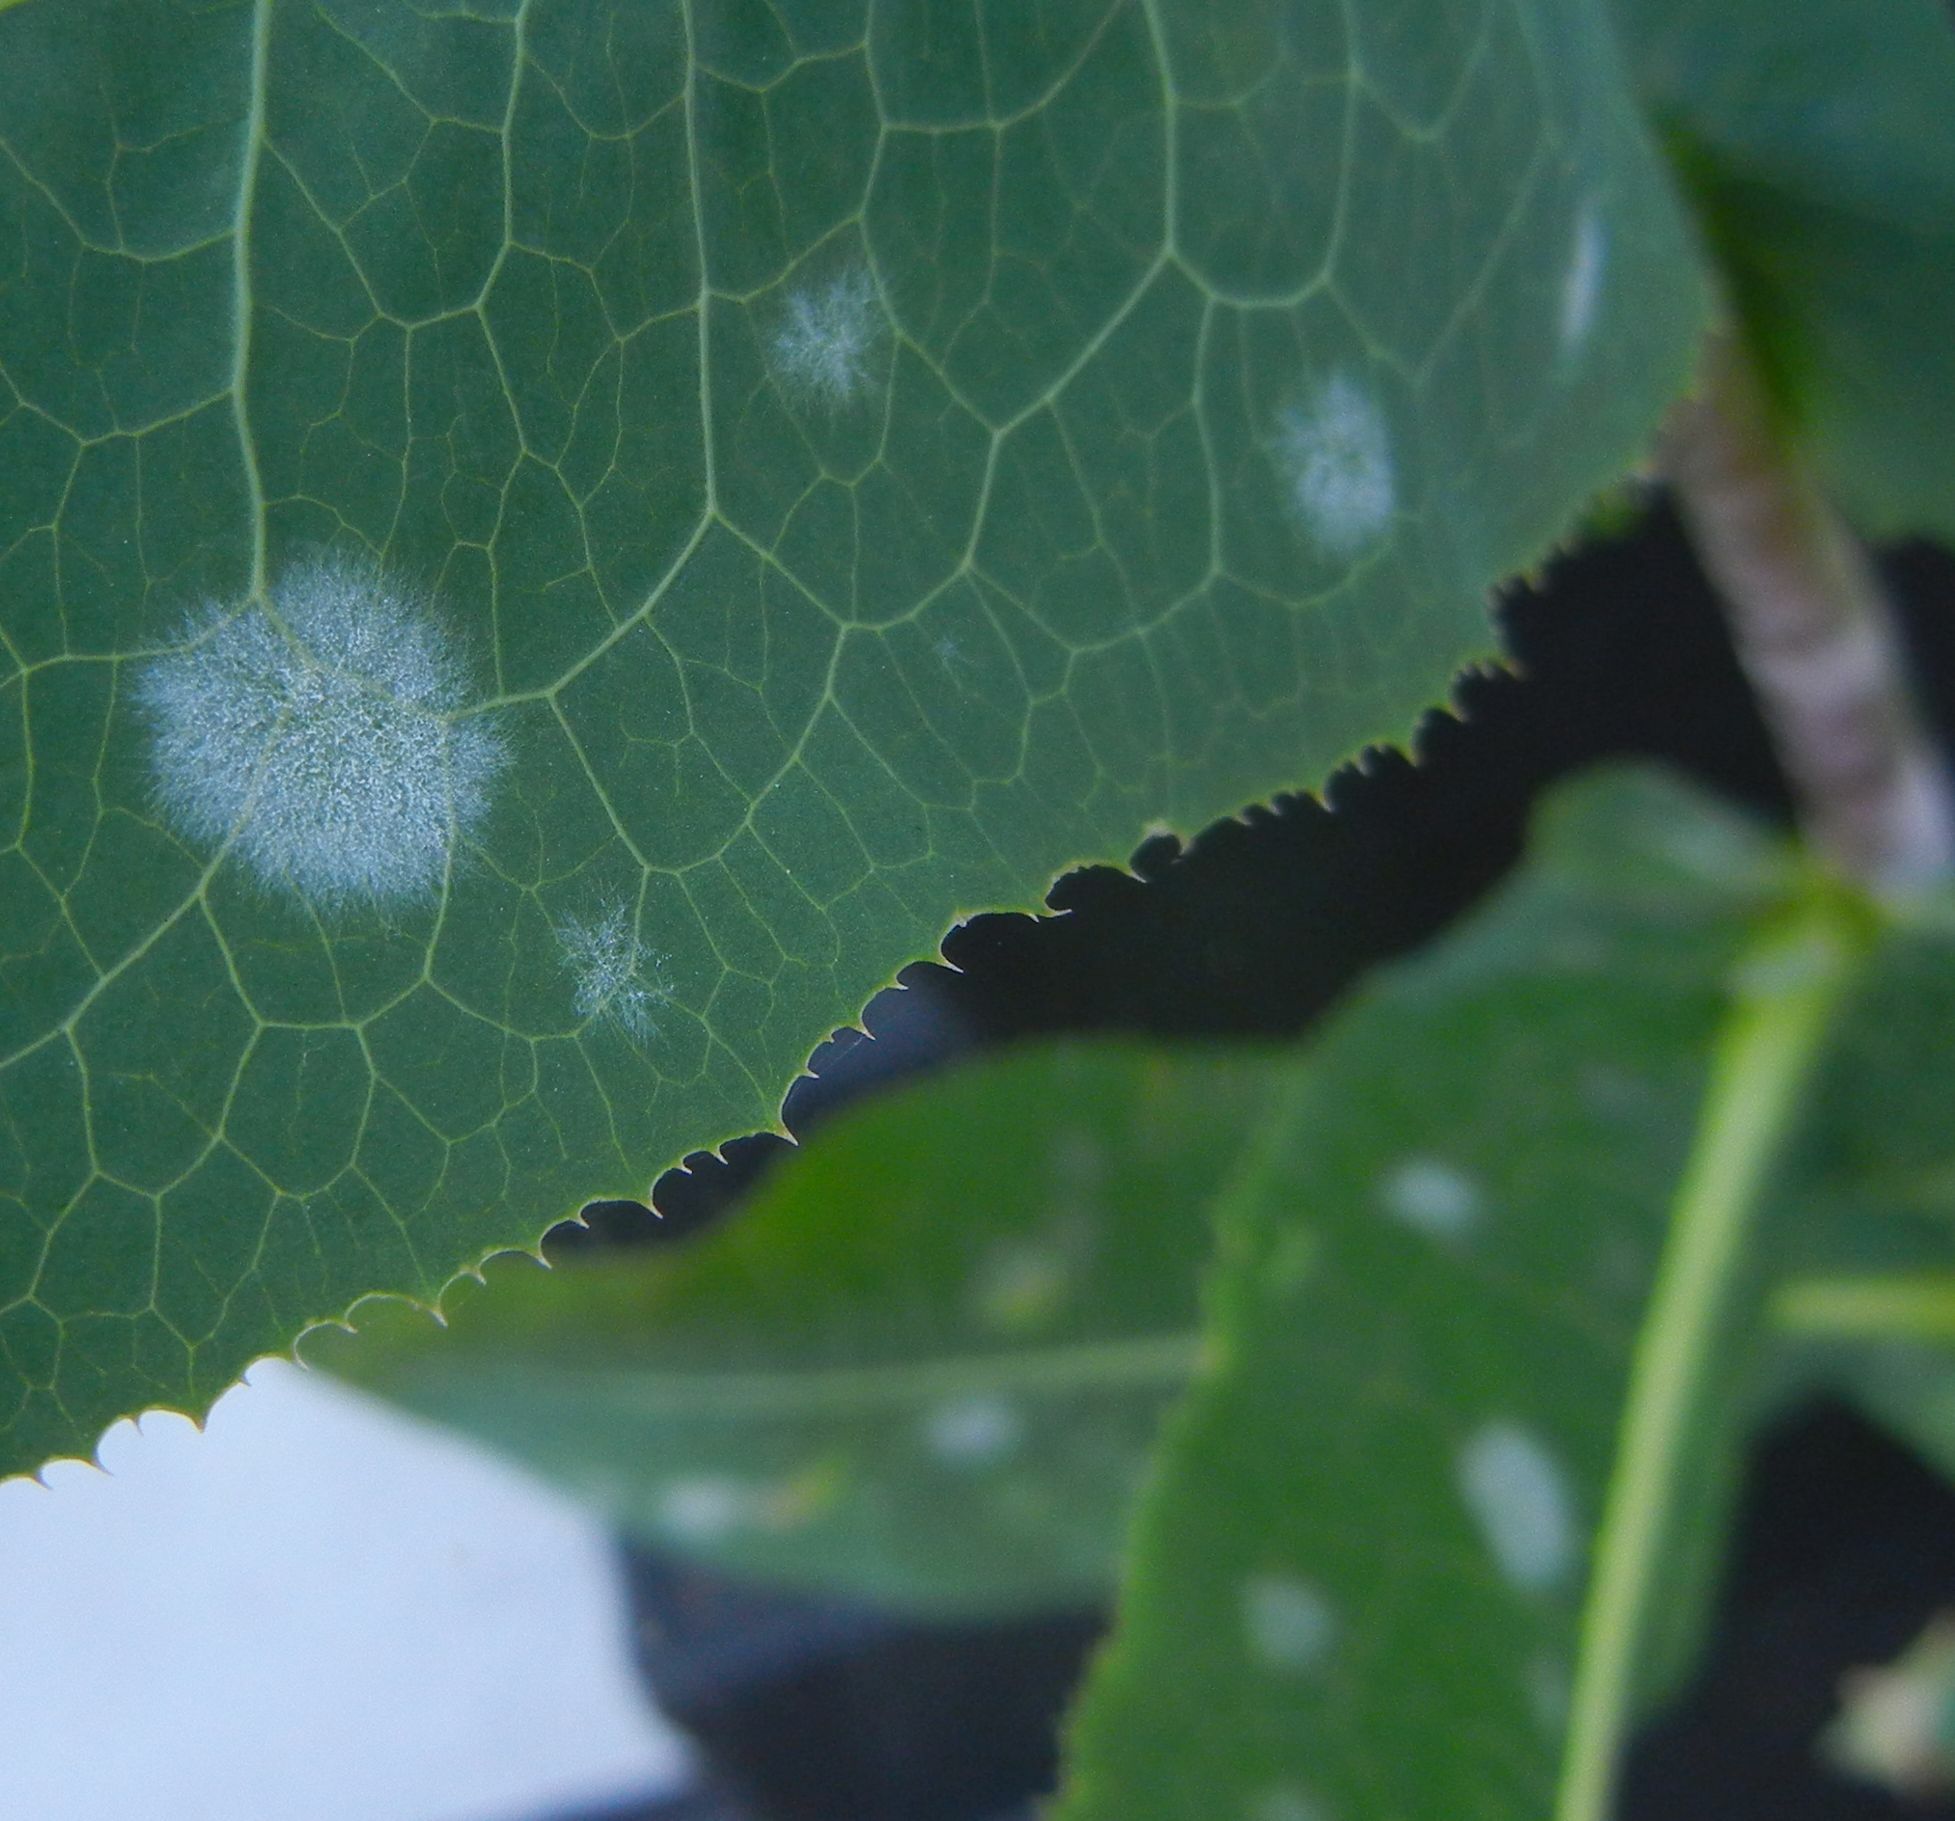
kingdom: Fungi
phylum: Ascomycota
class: Leotiomycetes
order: Helotiales
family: Erysiphaceae
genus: Golovinomyces
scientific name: Golovinomyces bolayi
